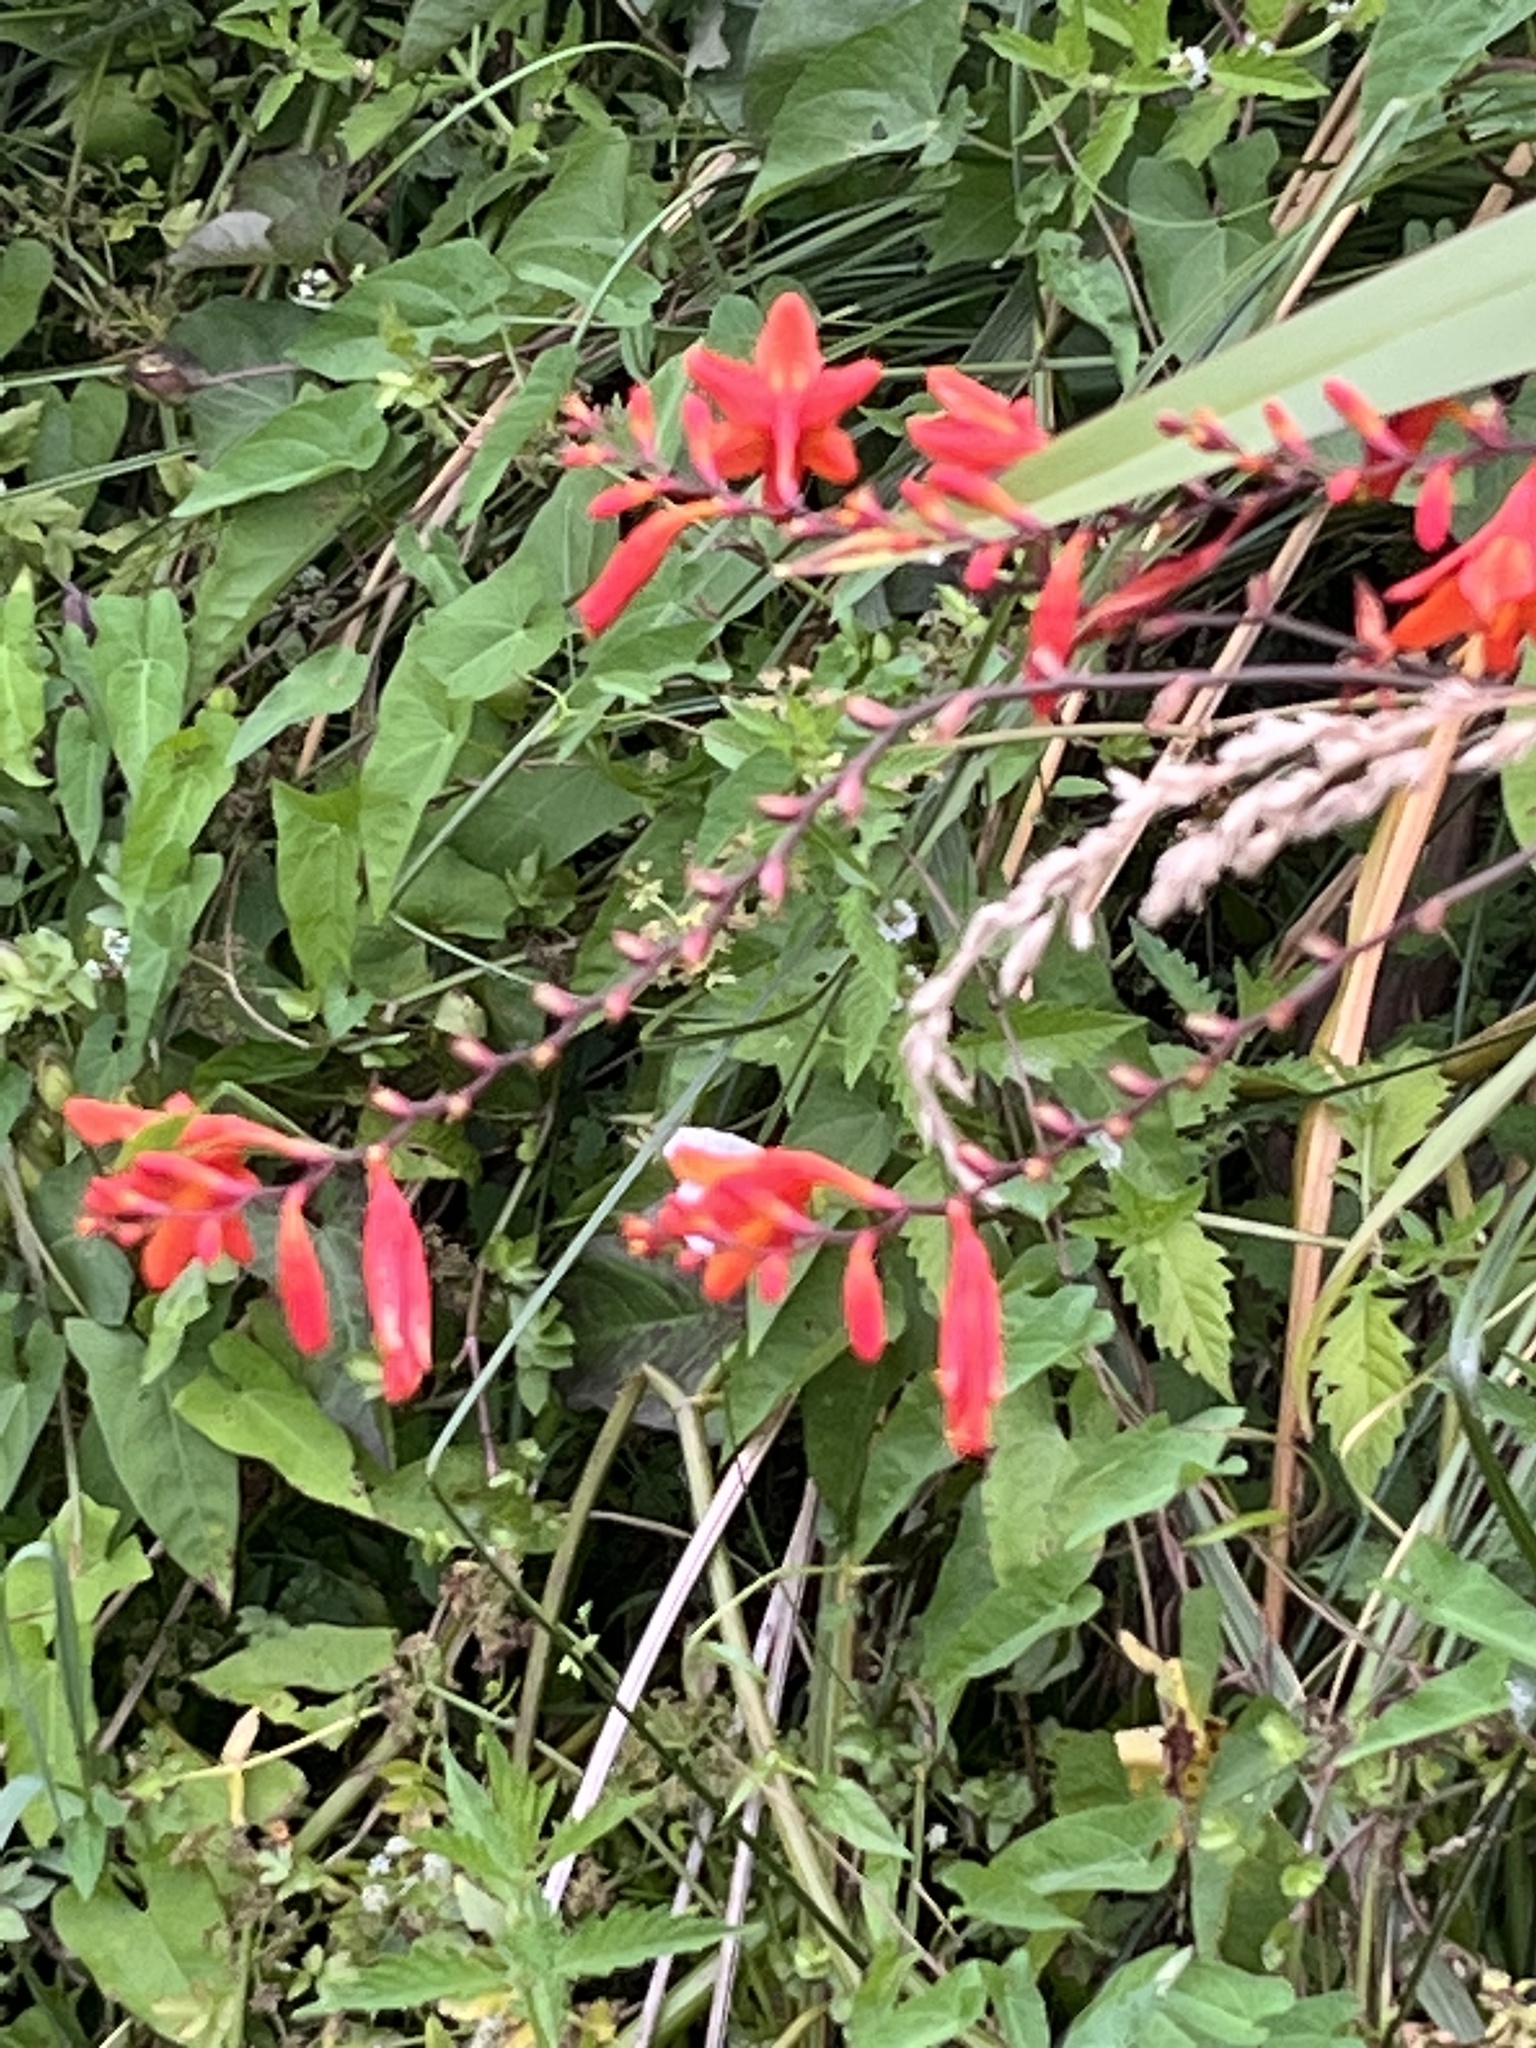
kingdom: Plantae
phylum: Tracheophyta
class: Liliopsida
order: Asparagales
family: Iridaceae
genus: Crocosmia
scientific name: Crocosmia crocosmiiflora
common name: Montbretia
